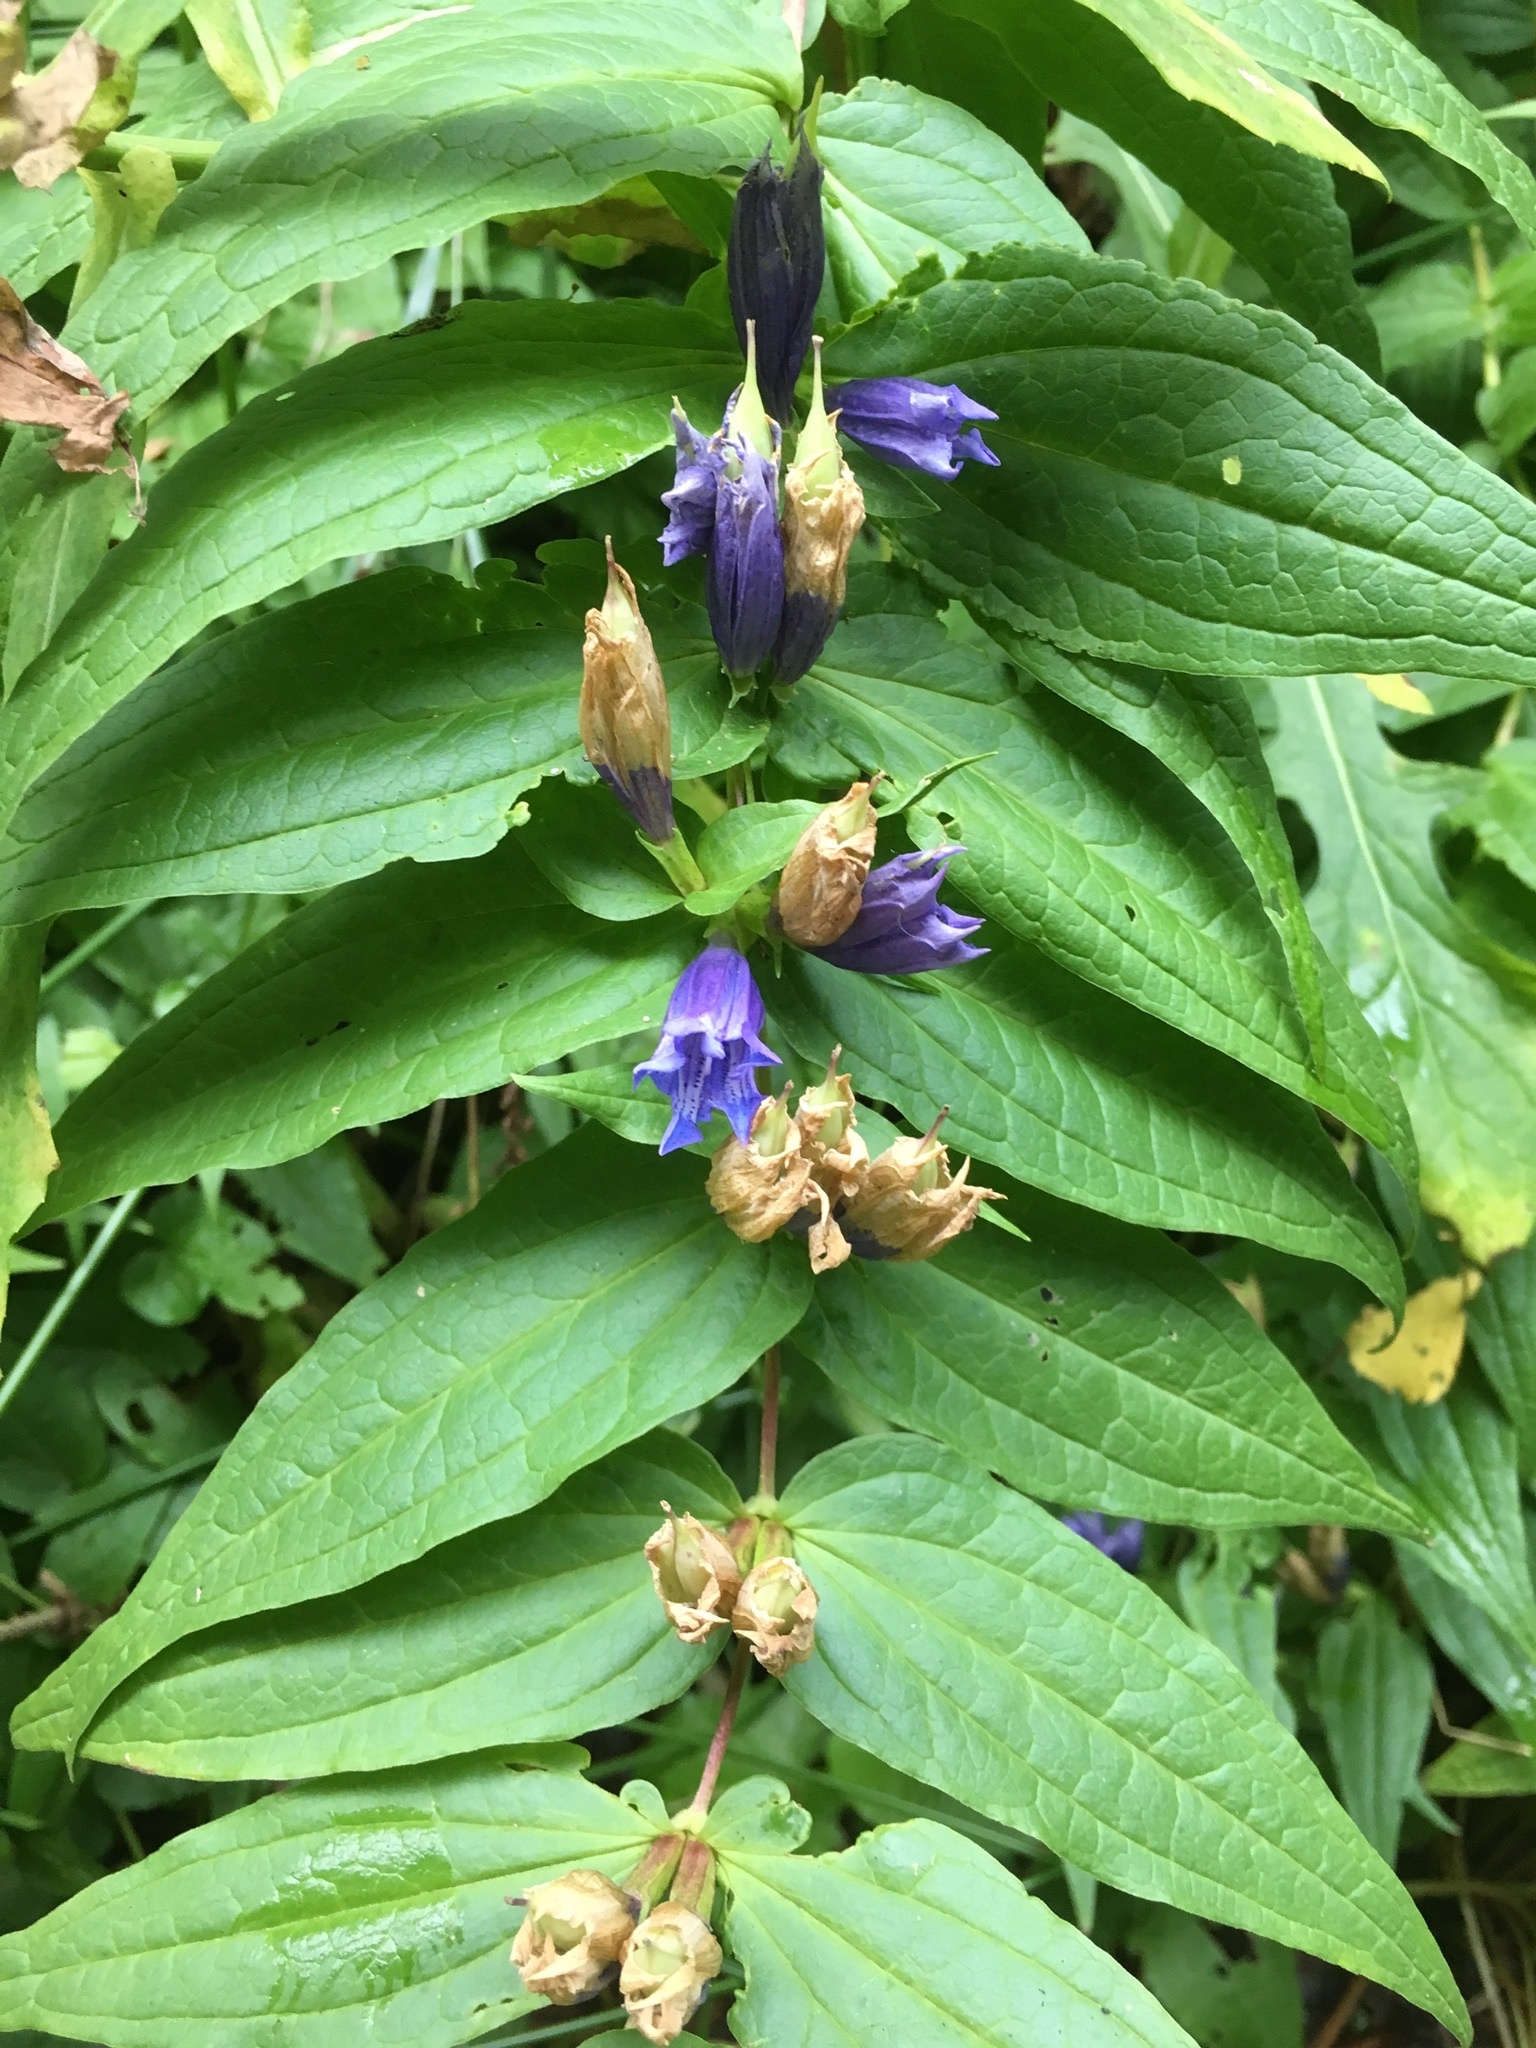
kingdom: Plantae
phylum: Tracheophyta
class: Magnoliopsida
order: Gentianales
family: Gentianaceae
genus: Gentiana
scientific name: Gentiana asclepiadea
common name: Willow gentian
